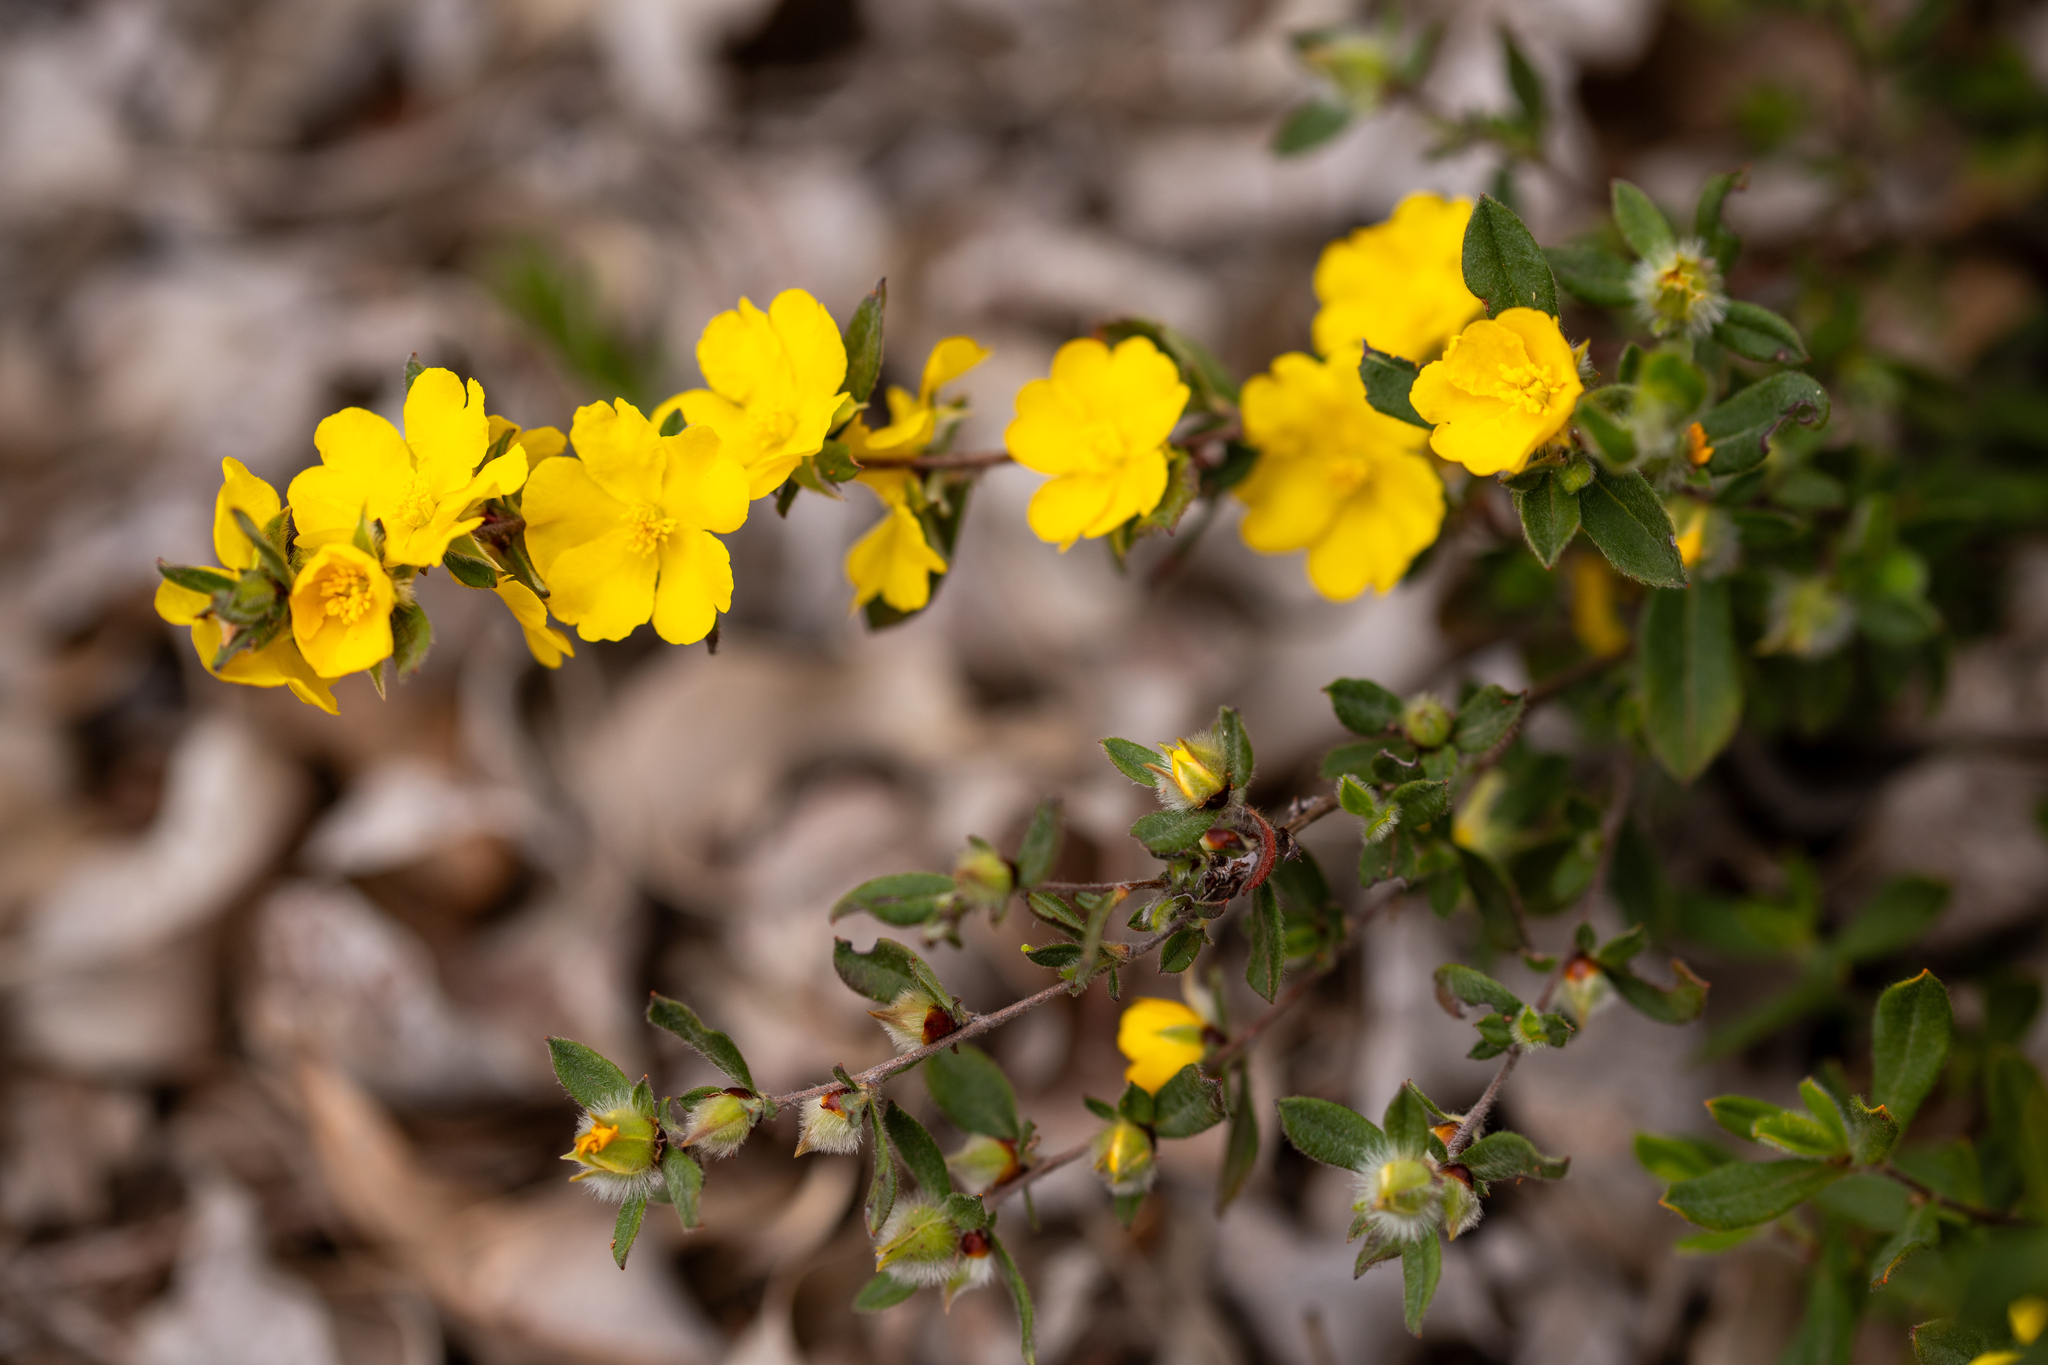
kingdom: Plantae
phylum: Tracheophyta
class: Magnoliopsida
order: Dilleniales
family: Dilleniaceae
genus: Hibbertia
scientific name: Hibbertia commutata
